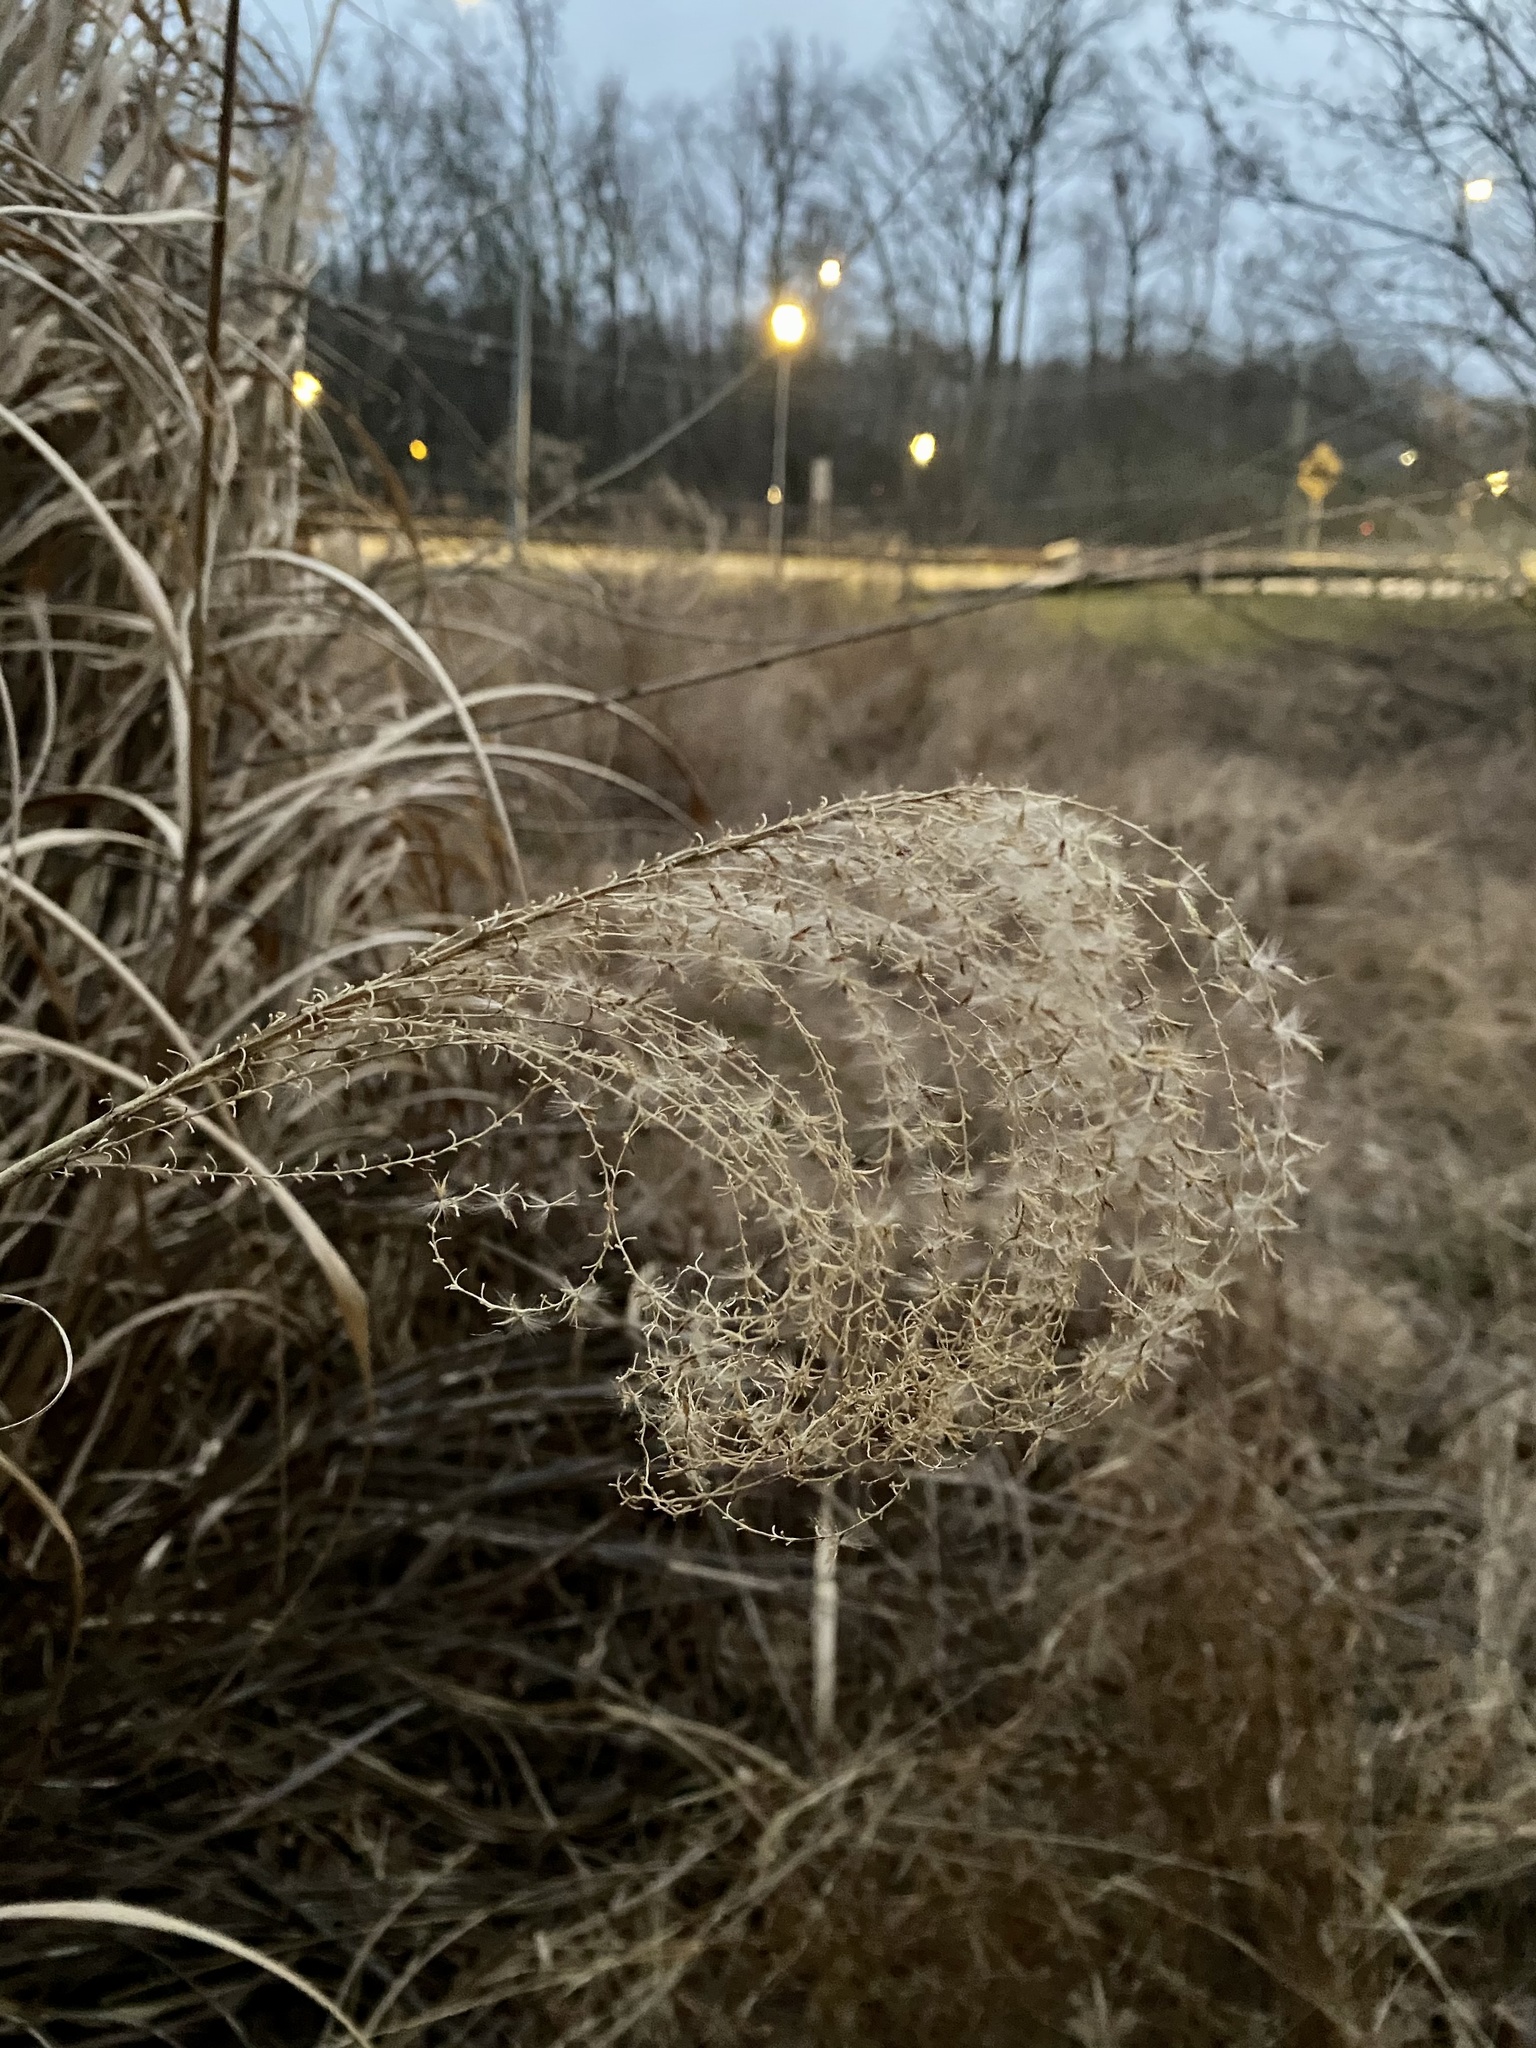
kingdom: Plantae
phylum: Tracheophyta
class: Liliopsida
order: Poales
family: Poaceae
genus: Miscanthus
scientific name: Miscanthus sinensis
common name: Chinese silvergrass
